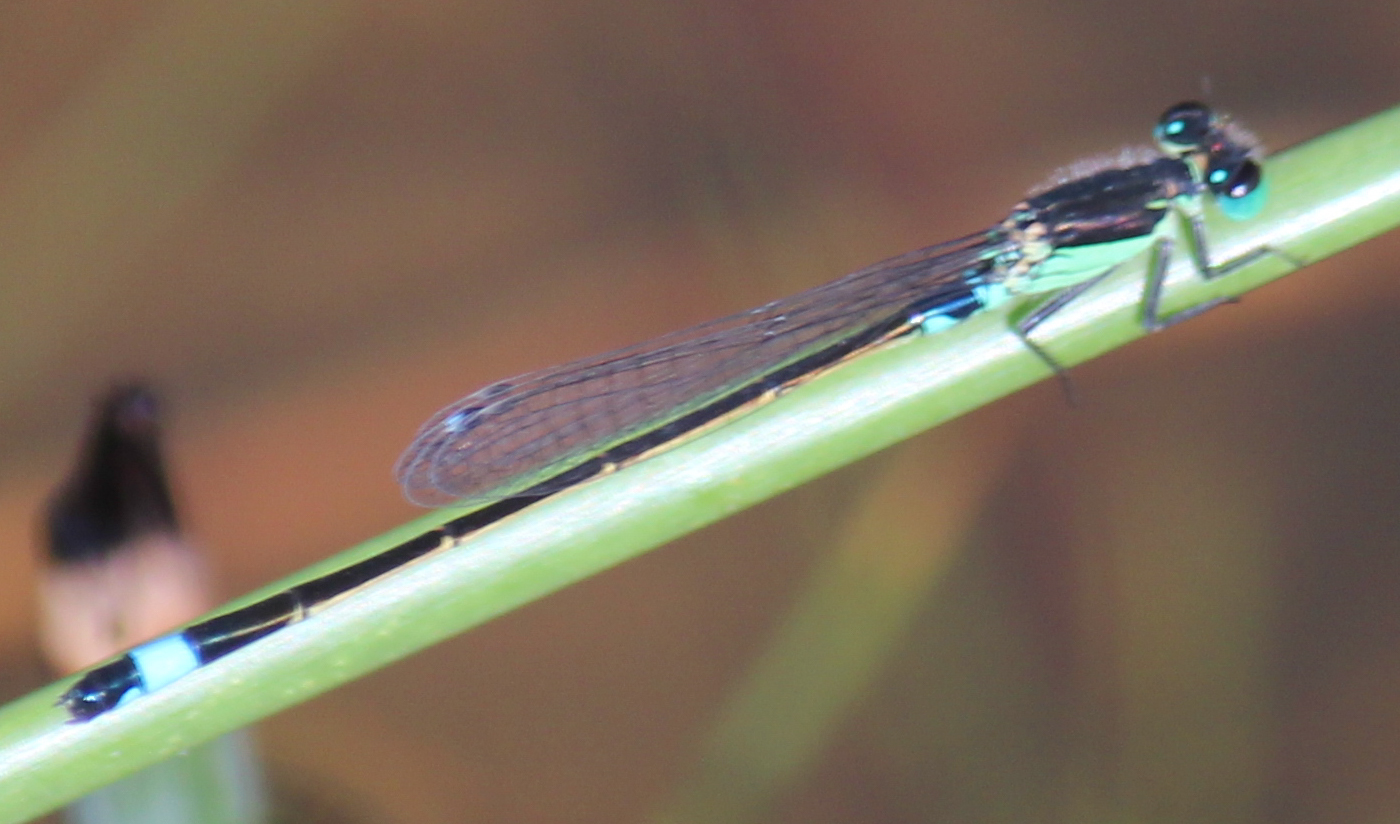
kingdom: Animalia
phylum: Arthropoda
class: Insecta
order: Odonata
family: Coenagrionidae
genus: Ischnura
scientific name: Ischnura senegalensis
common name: Tropical bluetail
